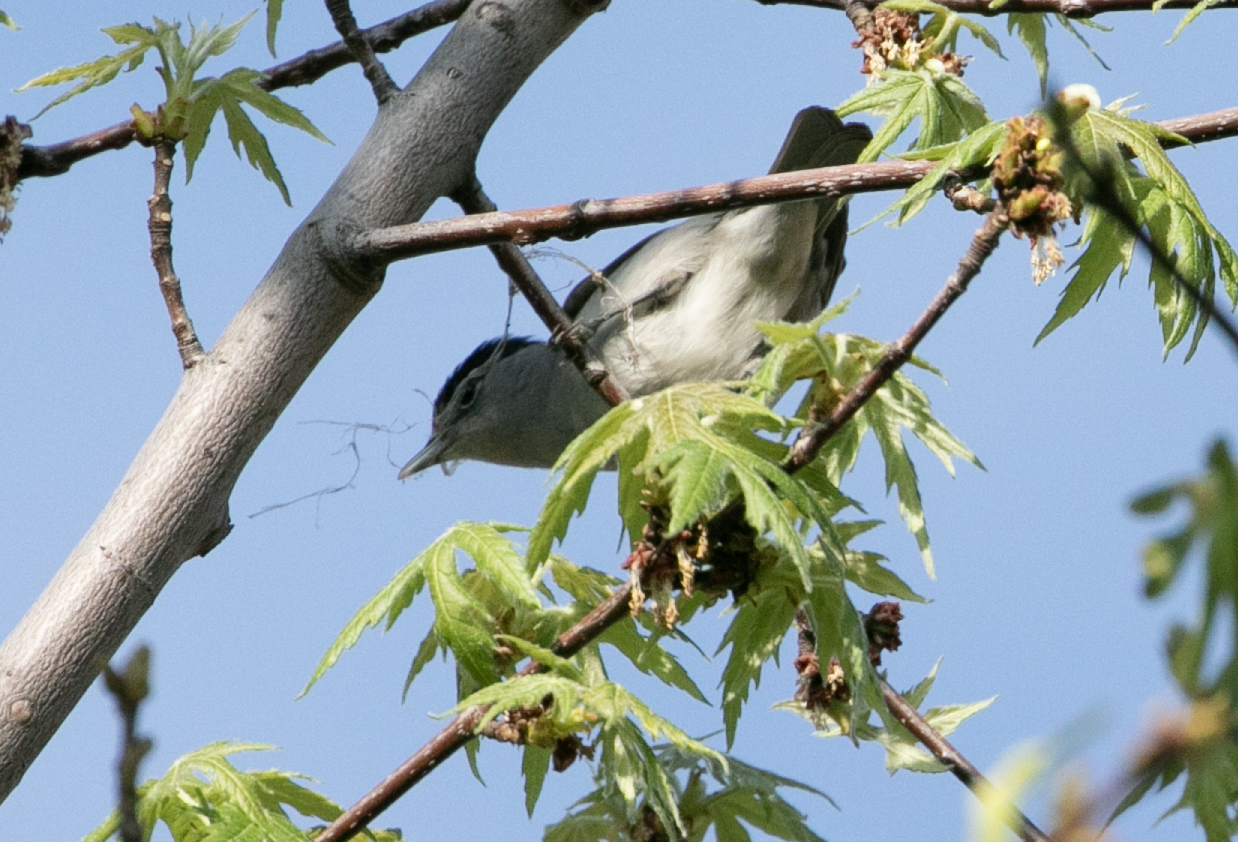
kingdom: Animalia
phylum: Chordata
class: Aves
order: Passeriformes
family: Sylviidae
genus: Sylvia
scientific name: Sylvia atricapilla
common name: Eurasian blackcap
